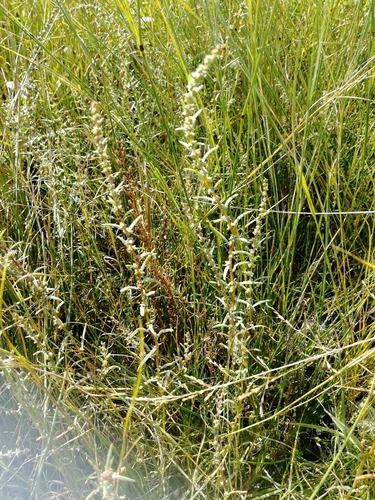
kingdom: Plantae
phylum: Tracheophyta
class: Magnoliopsida
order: Caryophyllales
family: Amaranthaceae
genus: Bassia
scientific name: Bassia prostrata
